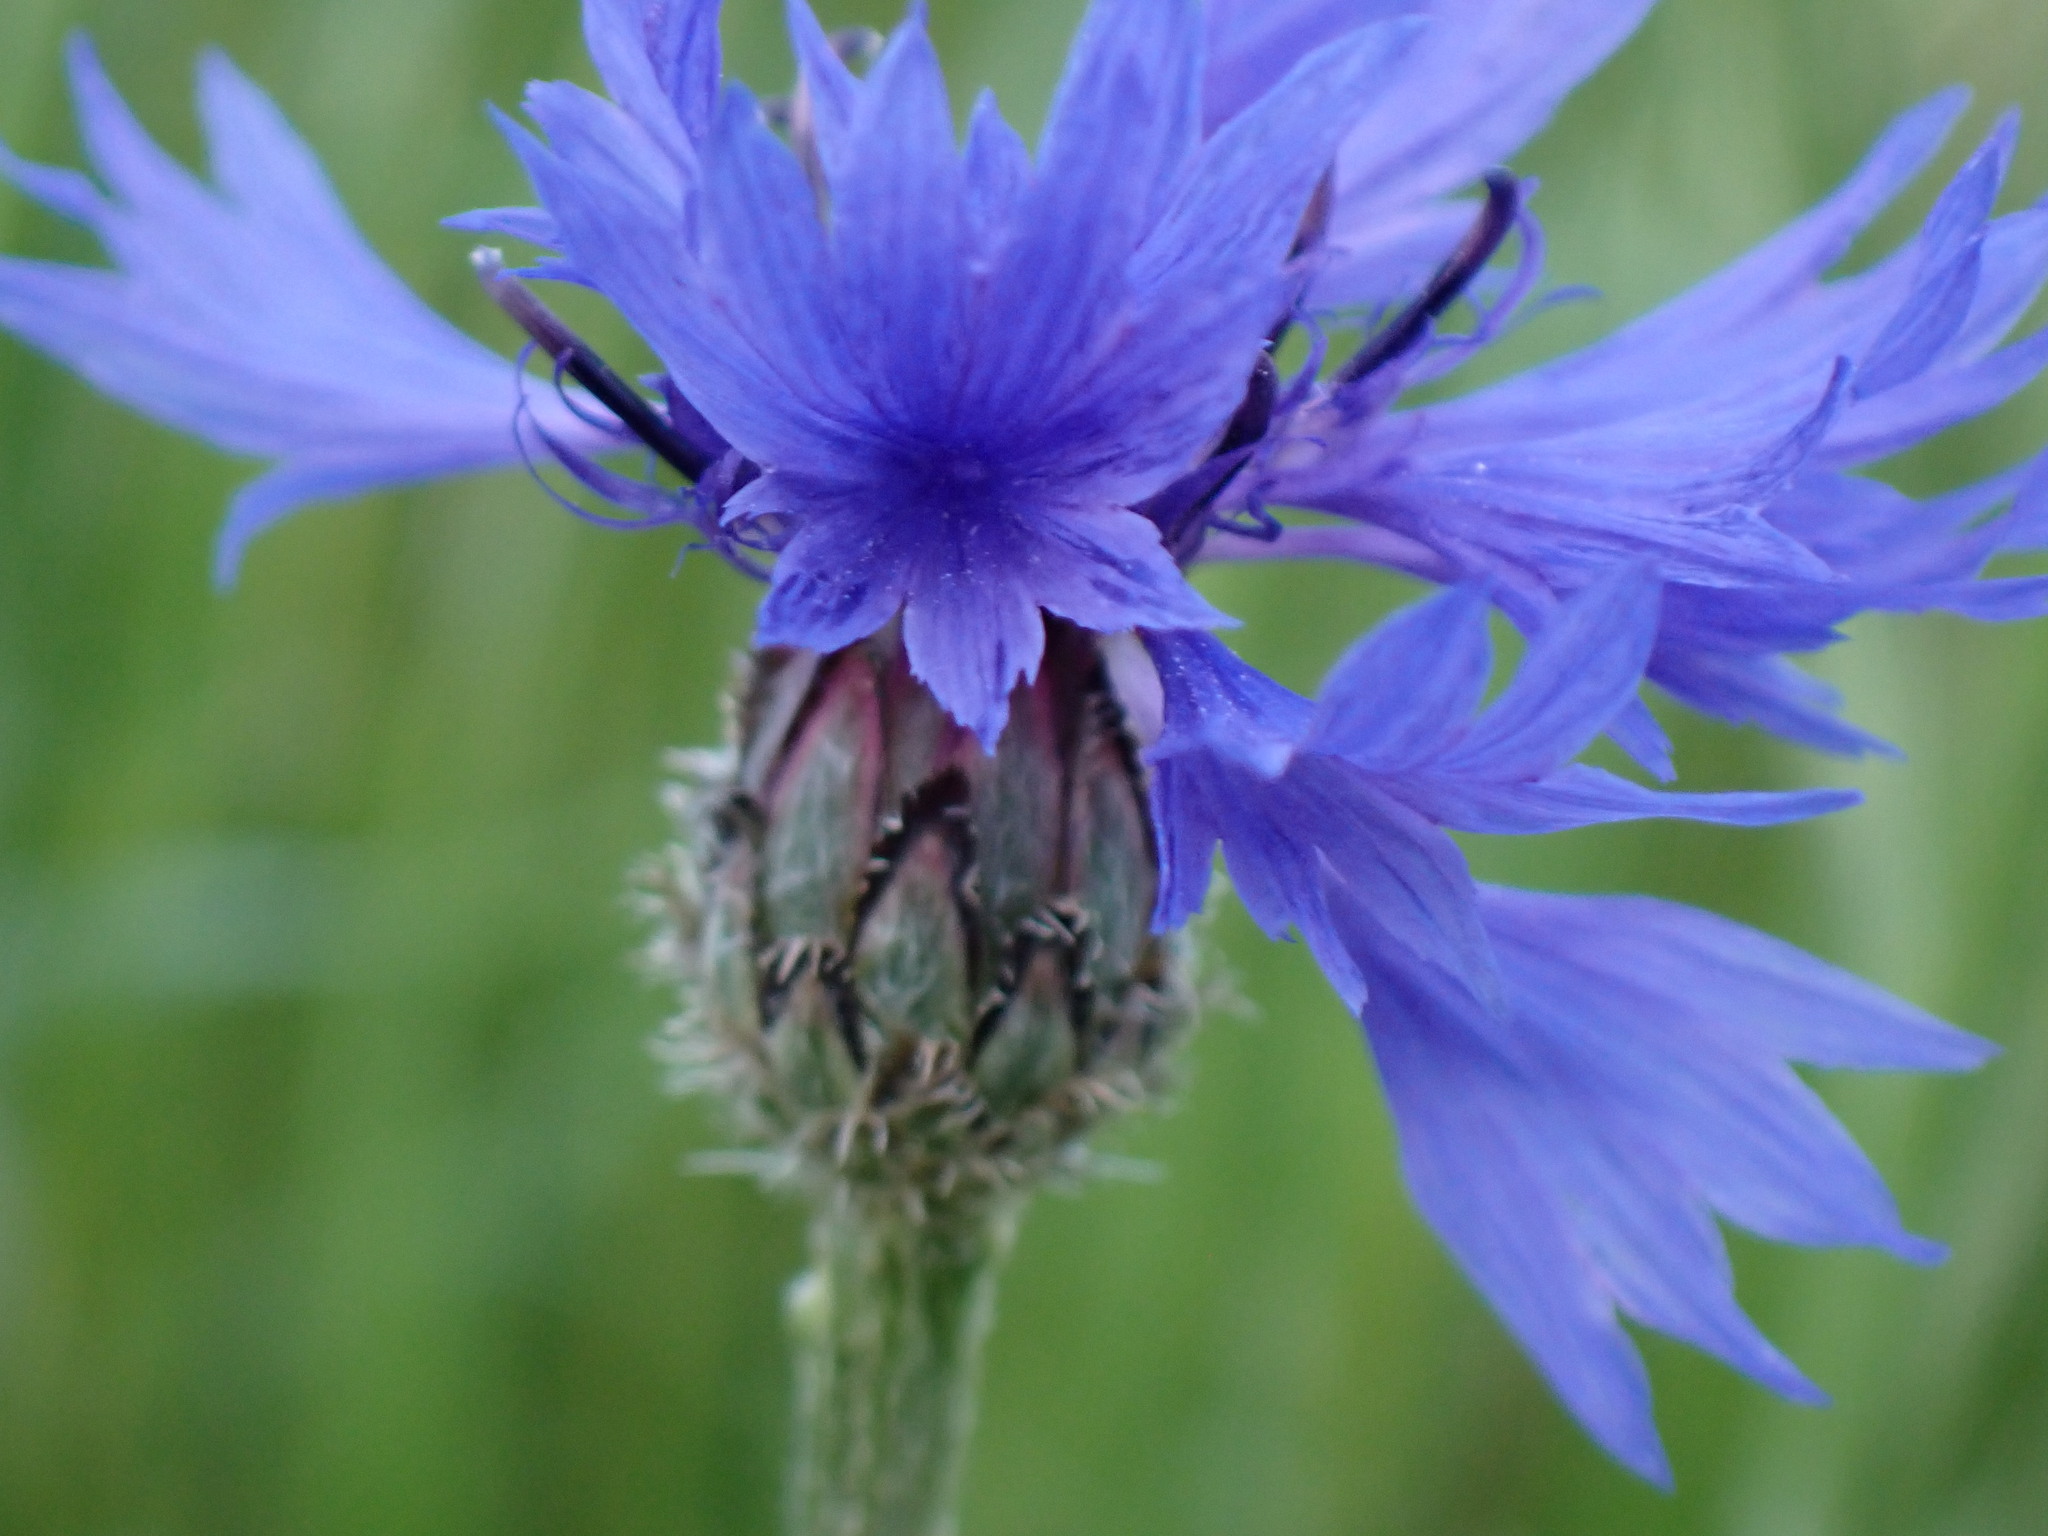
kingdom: Plantae
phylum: Tracheophyta
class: Magnoliopsida
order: Asterales
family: Asteraceae
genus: Centaurea
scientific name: Centaurea cyanus
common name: Cornflower
